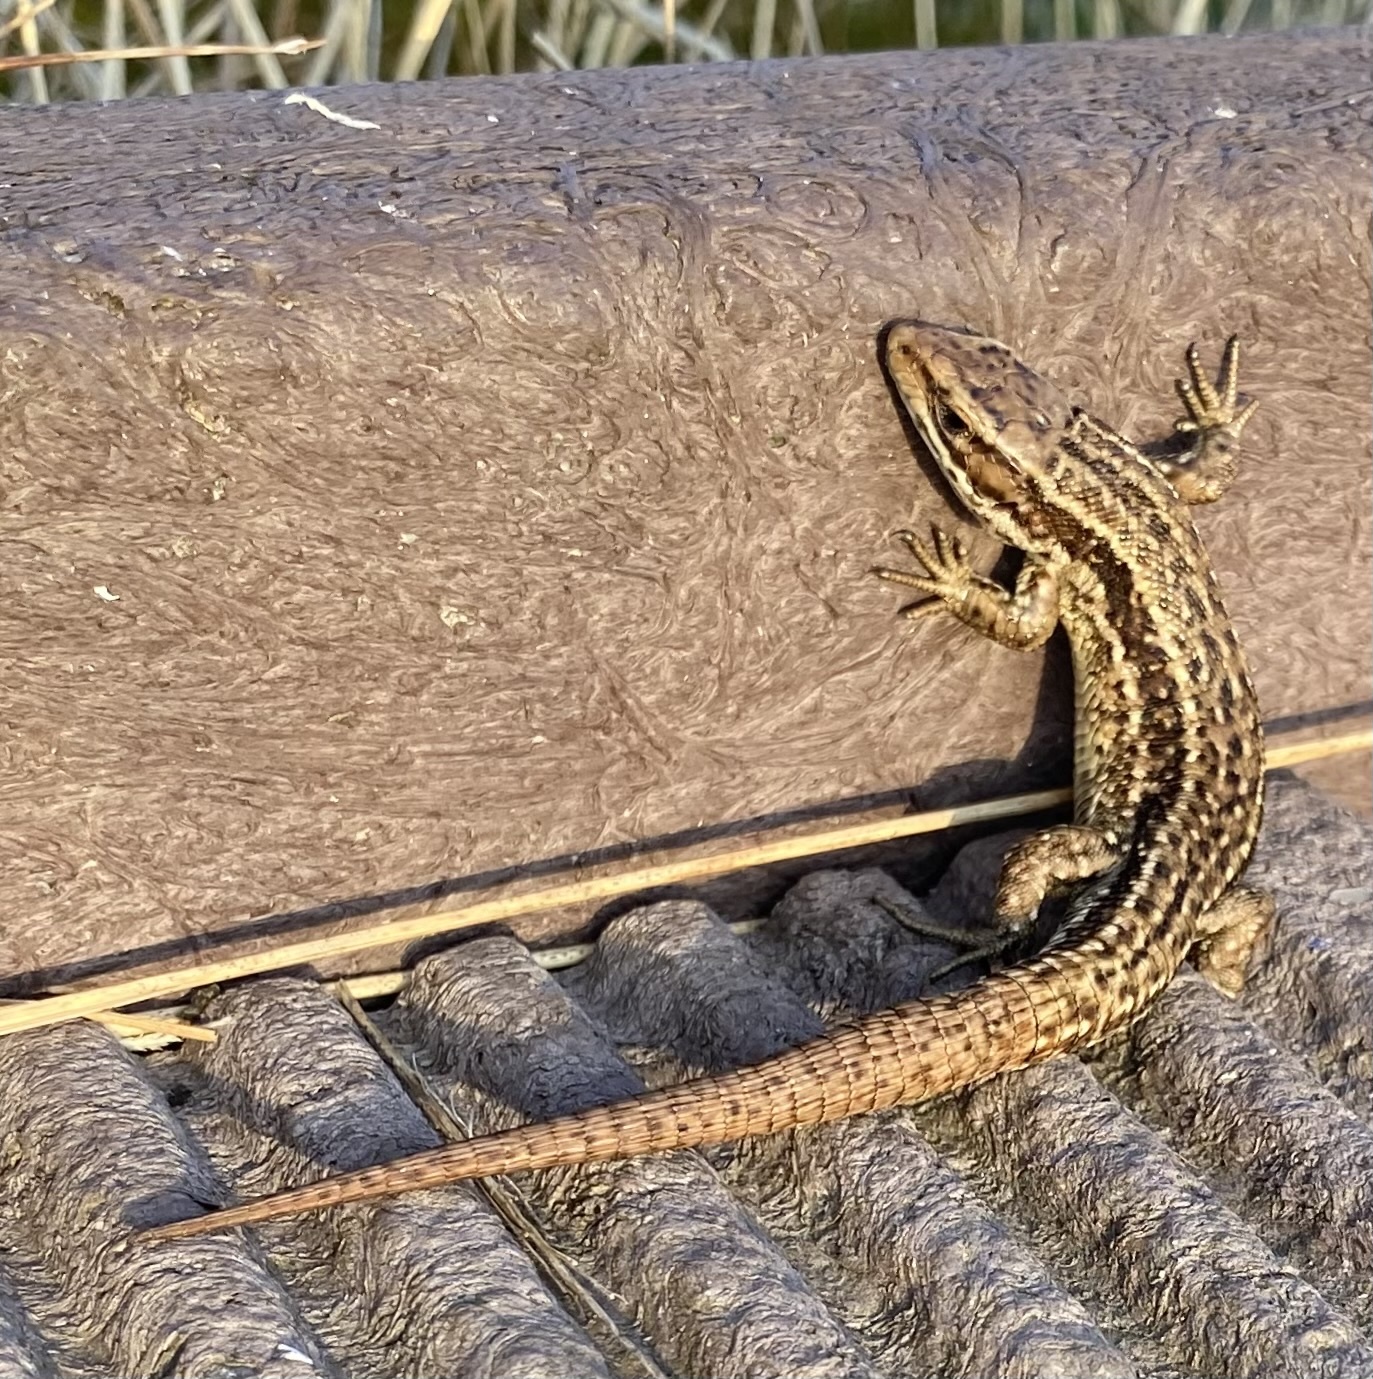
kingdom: Animalia
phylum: Chordata
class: Squamata
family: Lacertidae
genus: Zootoca
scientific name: Zootoca vivipara
